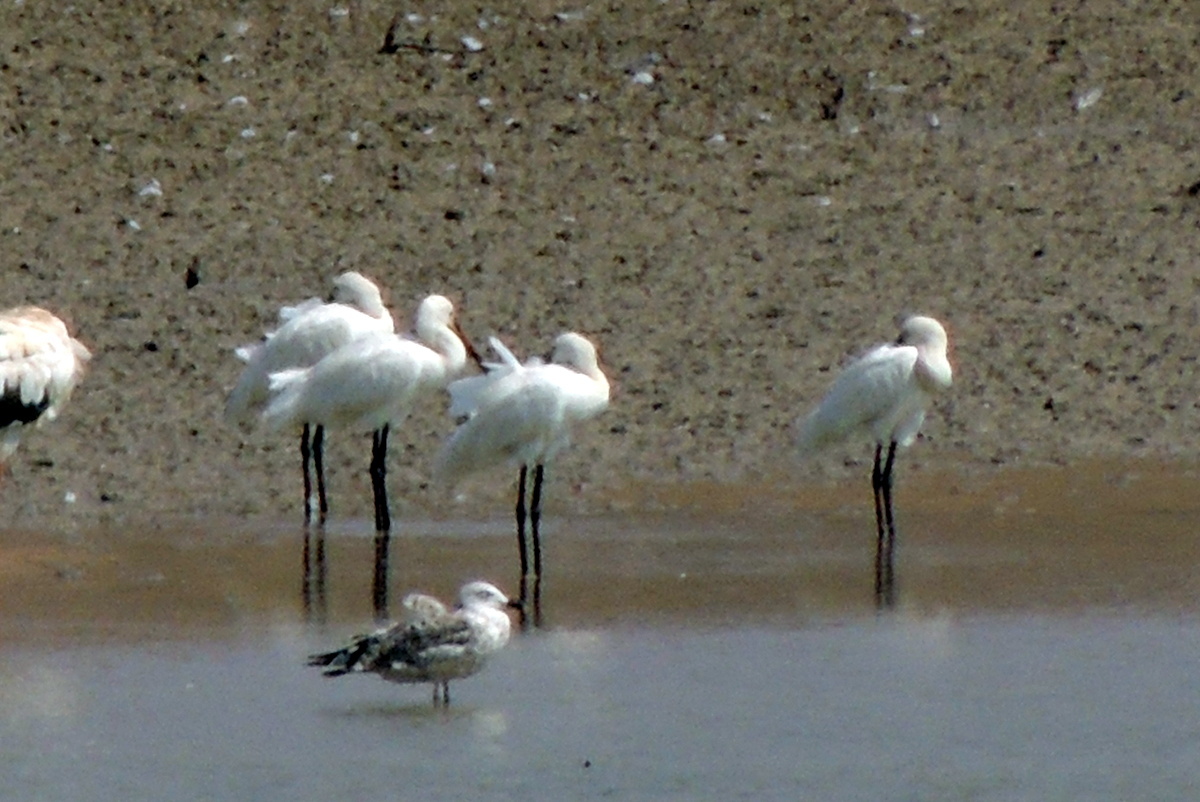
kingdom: Animalia
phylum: Chordata
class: Aves
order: Pelecaniformes
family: Threskiornithidae
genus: Platalea
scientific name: Platalea leucorodia
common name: Eurasian spoonbill
